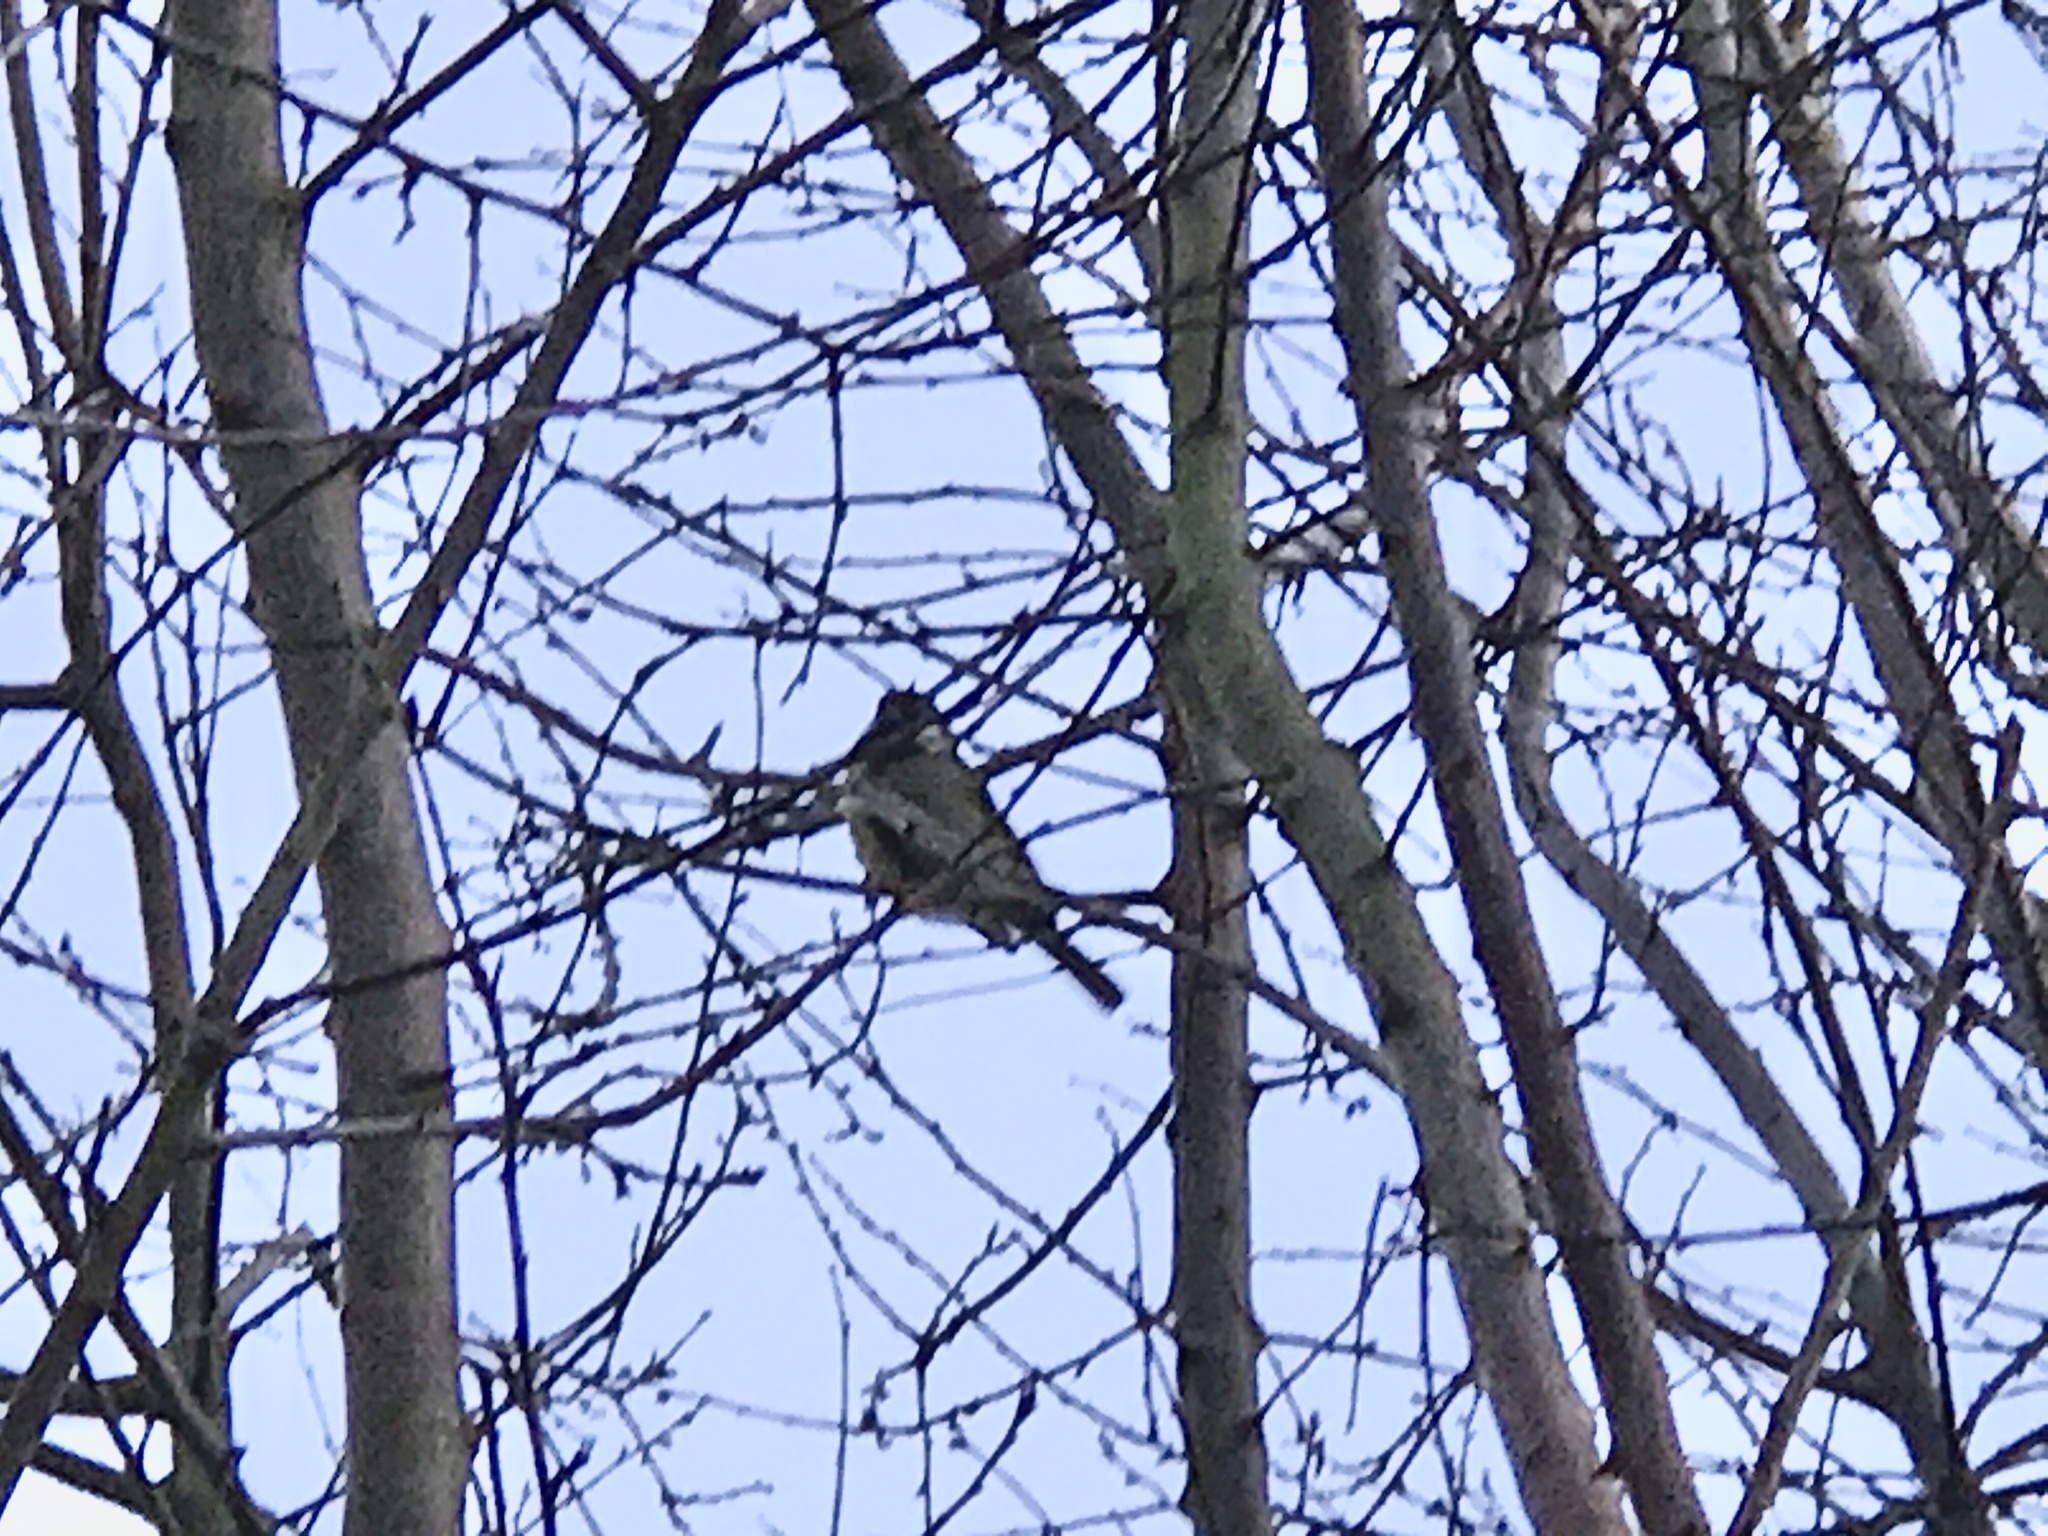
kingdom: Animalia
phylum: Chordata
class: Aves
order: Passeriformes
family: Paridae
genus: Parus
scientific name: Parus major
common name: Great tit
